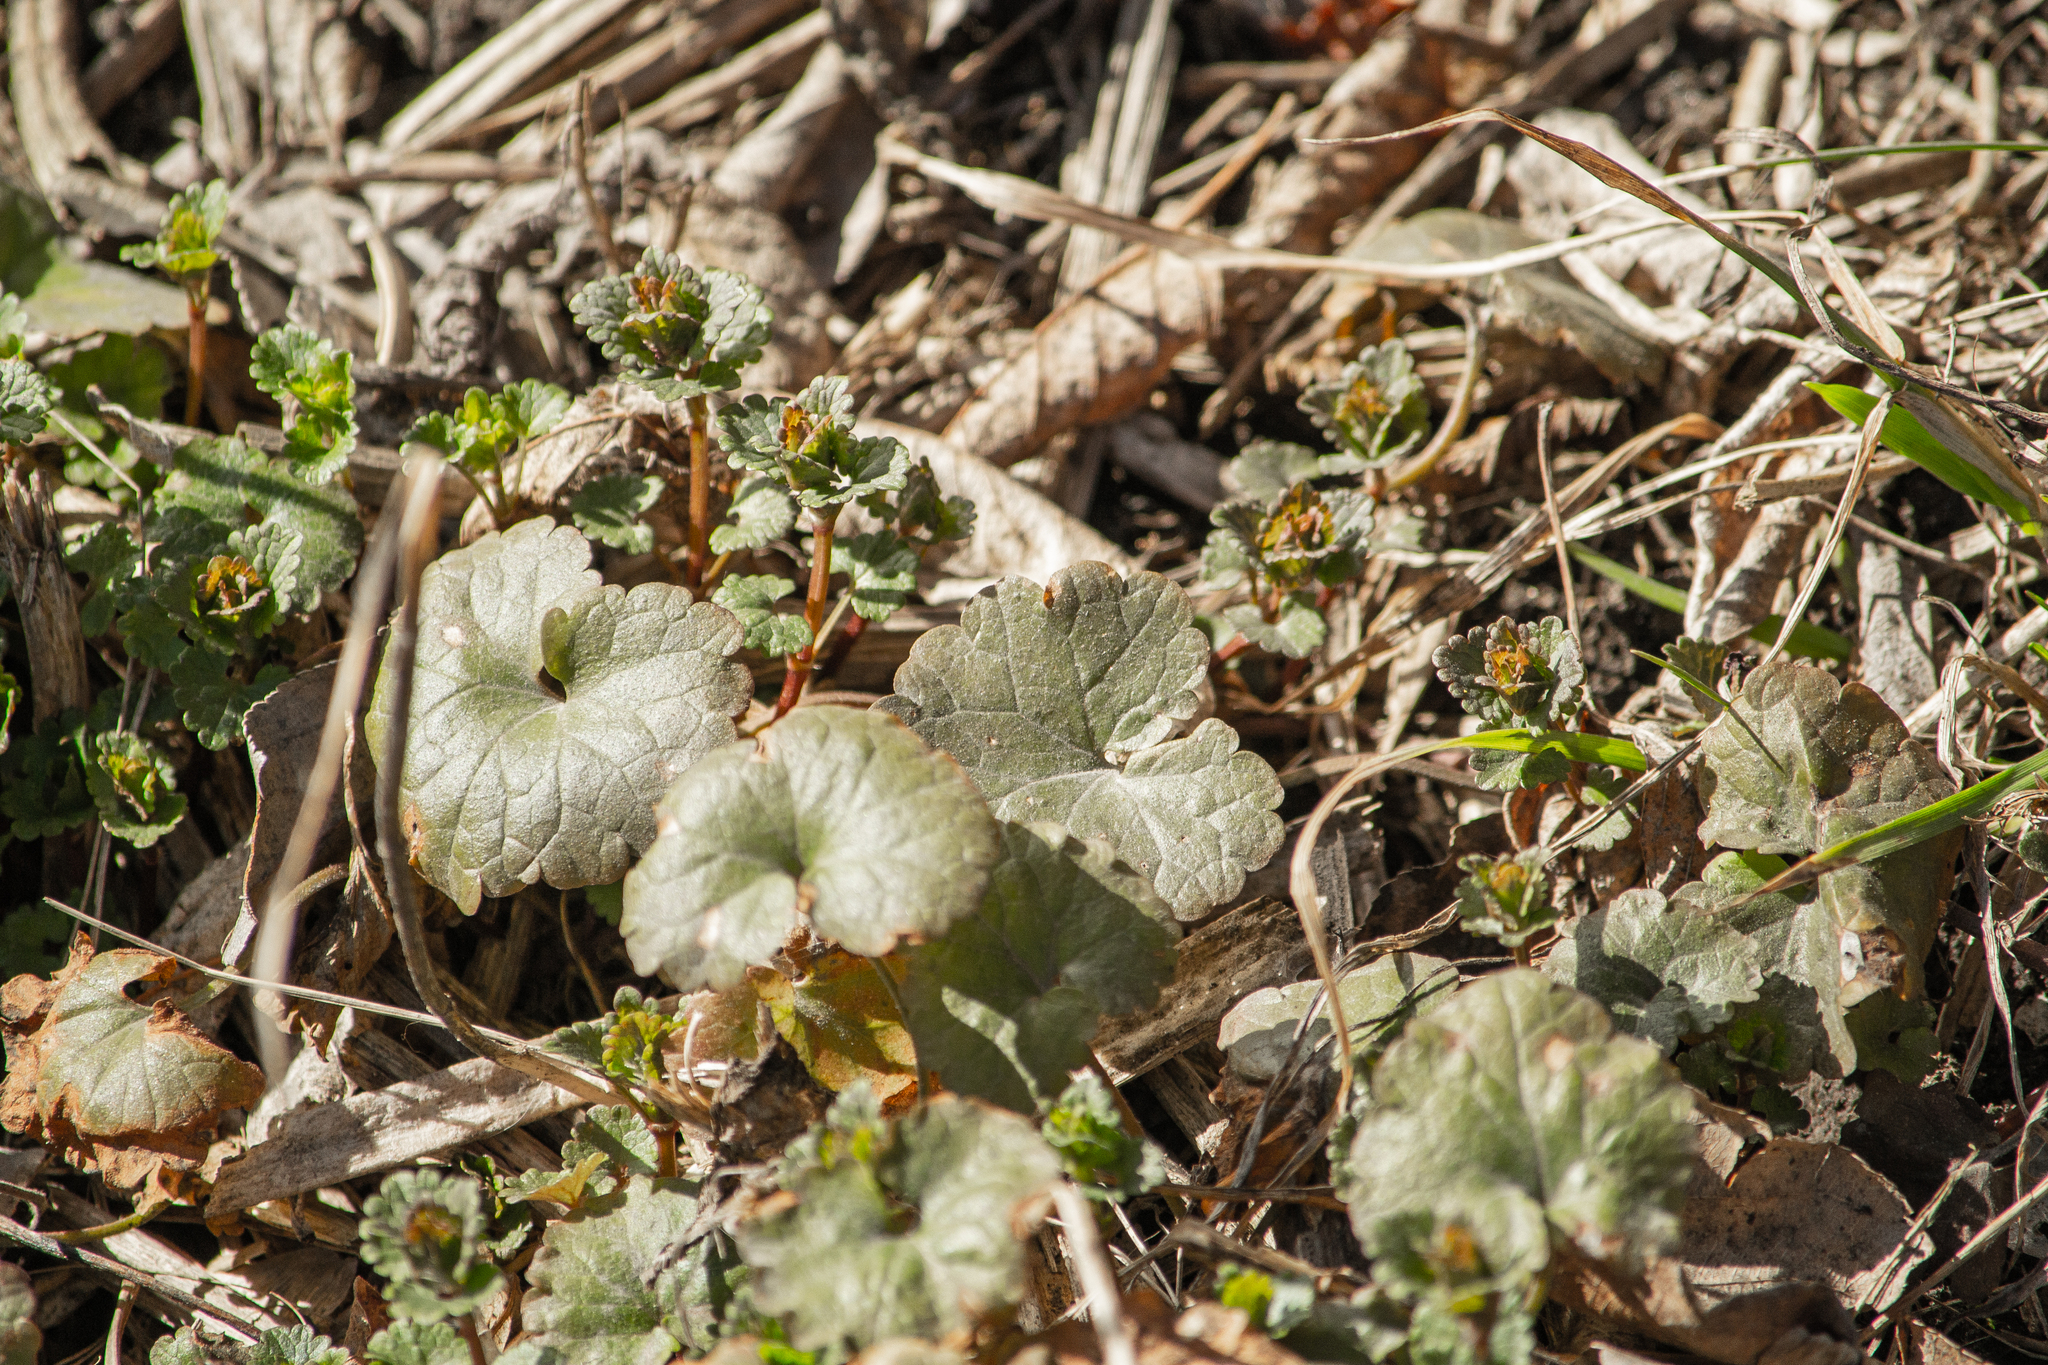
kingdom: Plantae
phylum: Tracheophyta
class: Magnoliopsida
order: Lamiales
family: Lamiaceae
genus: Glechoma
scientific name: Glechoma hederacea
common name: Ground ivy
